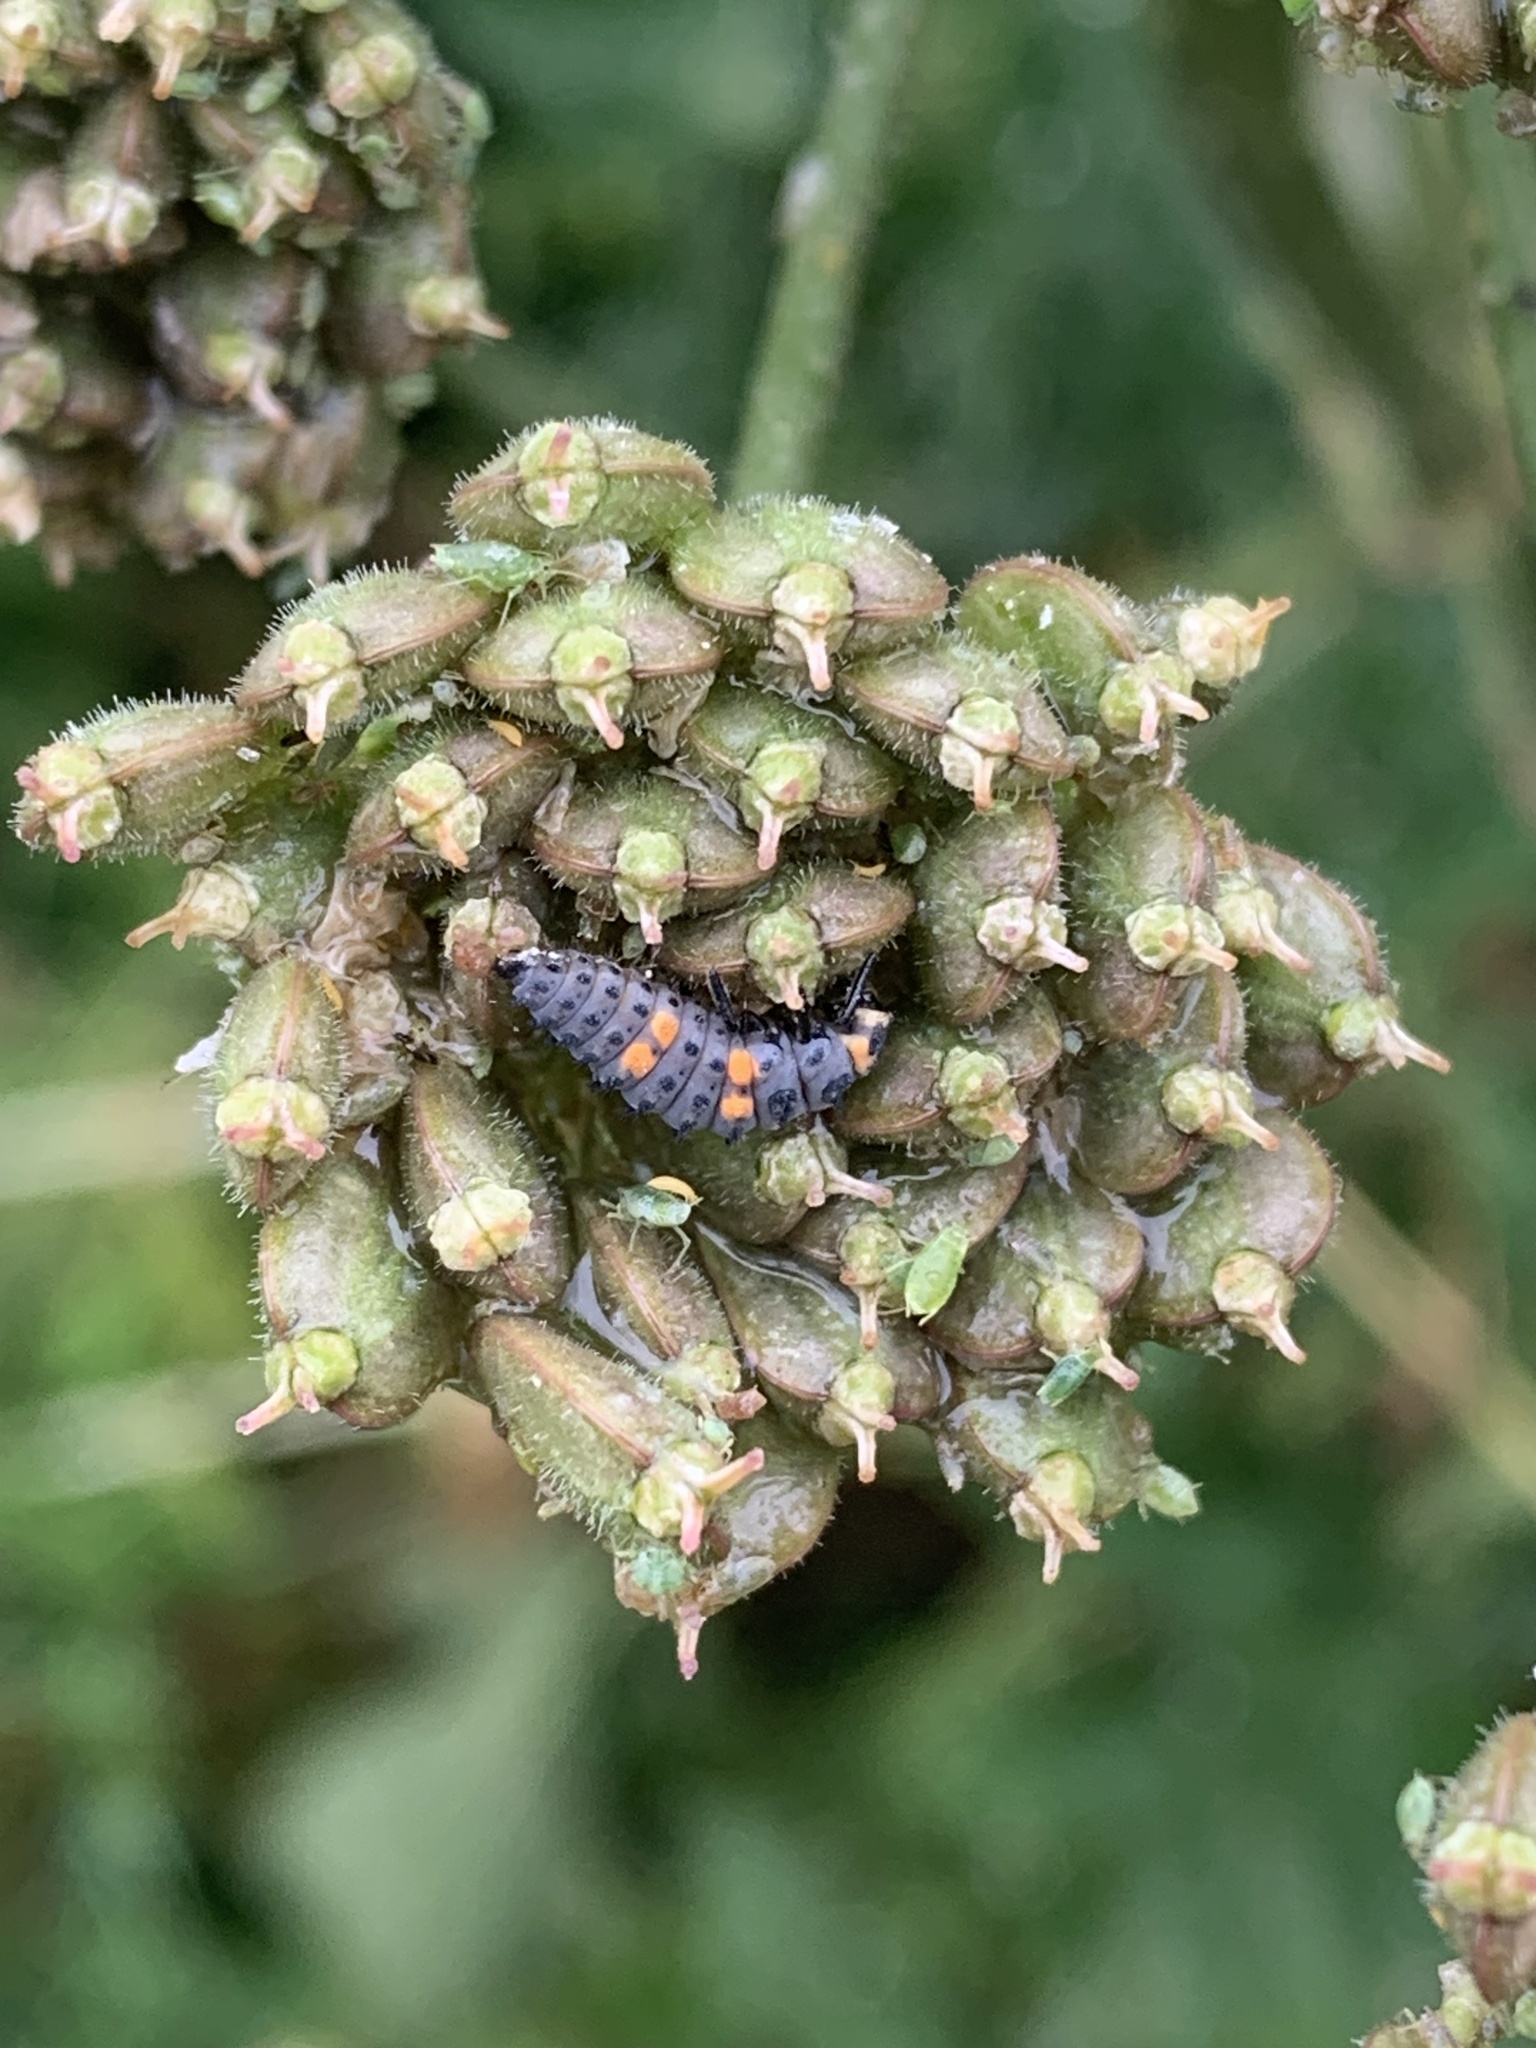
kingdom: Animalia
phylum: Arthropoda
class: Insecta
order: Coleoptera
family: Coccinellidae
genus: Coccinella
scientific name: Coccinella septempunctata
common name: Sevenspotted lady beetle
